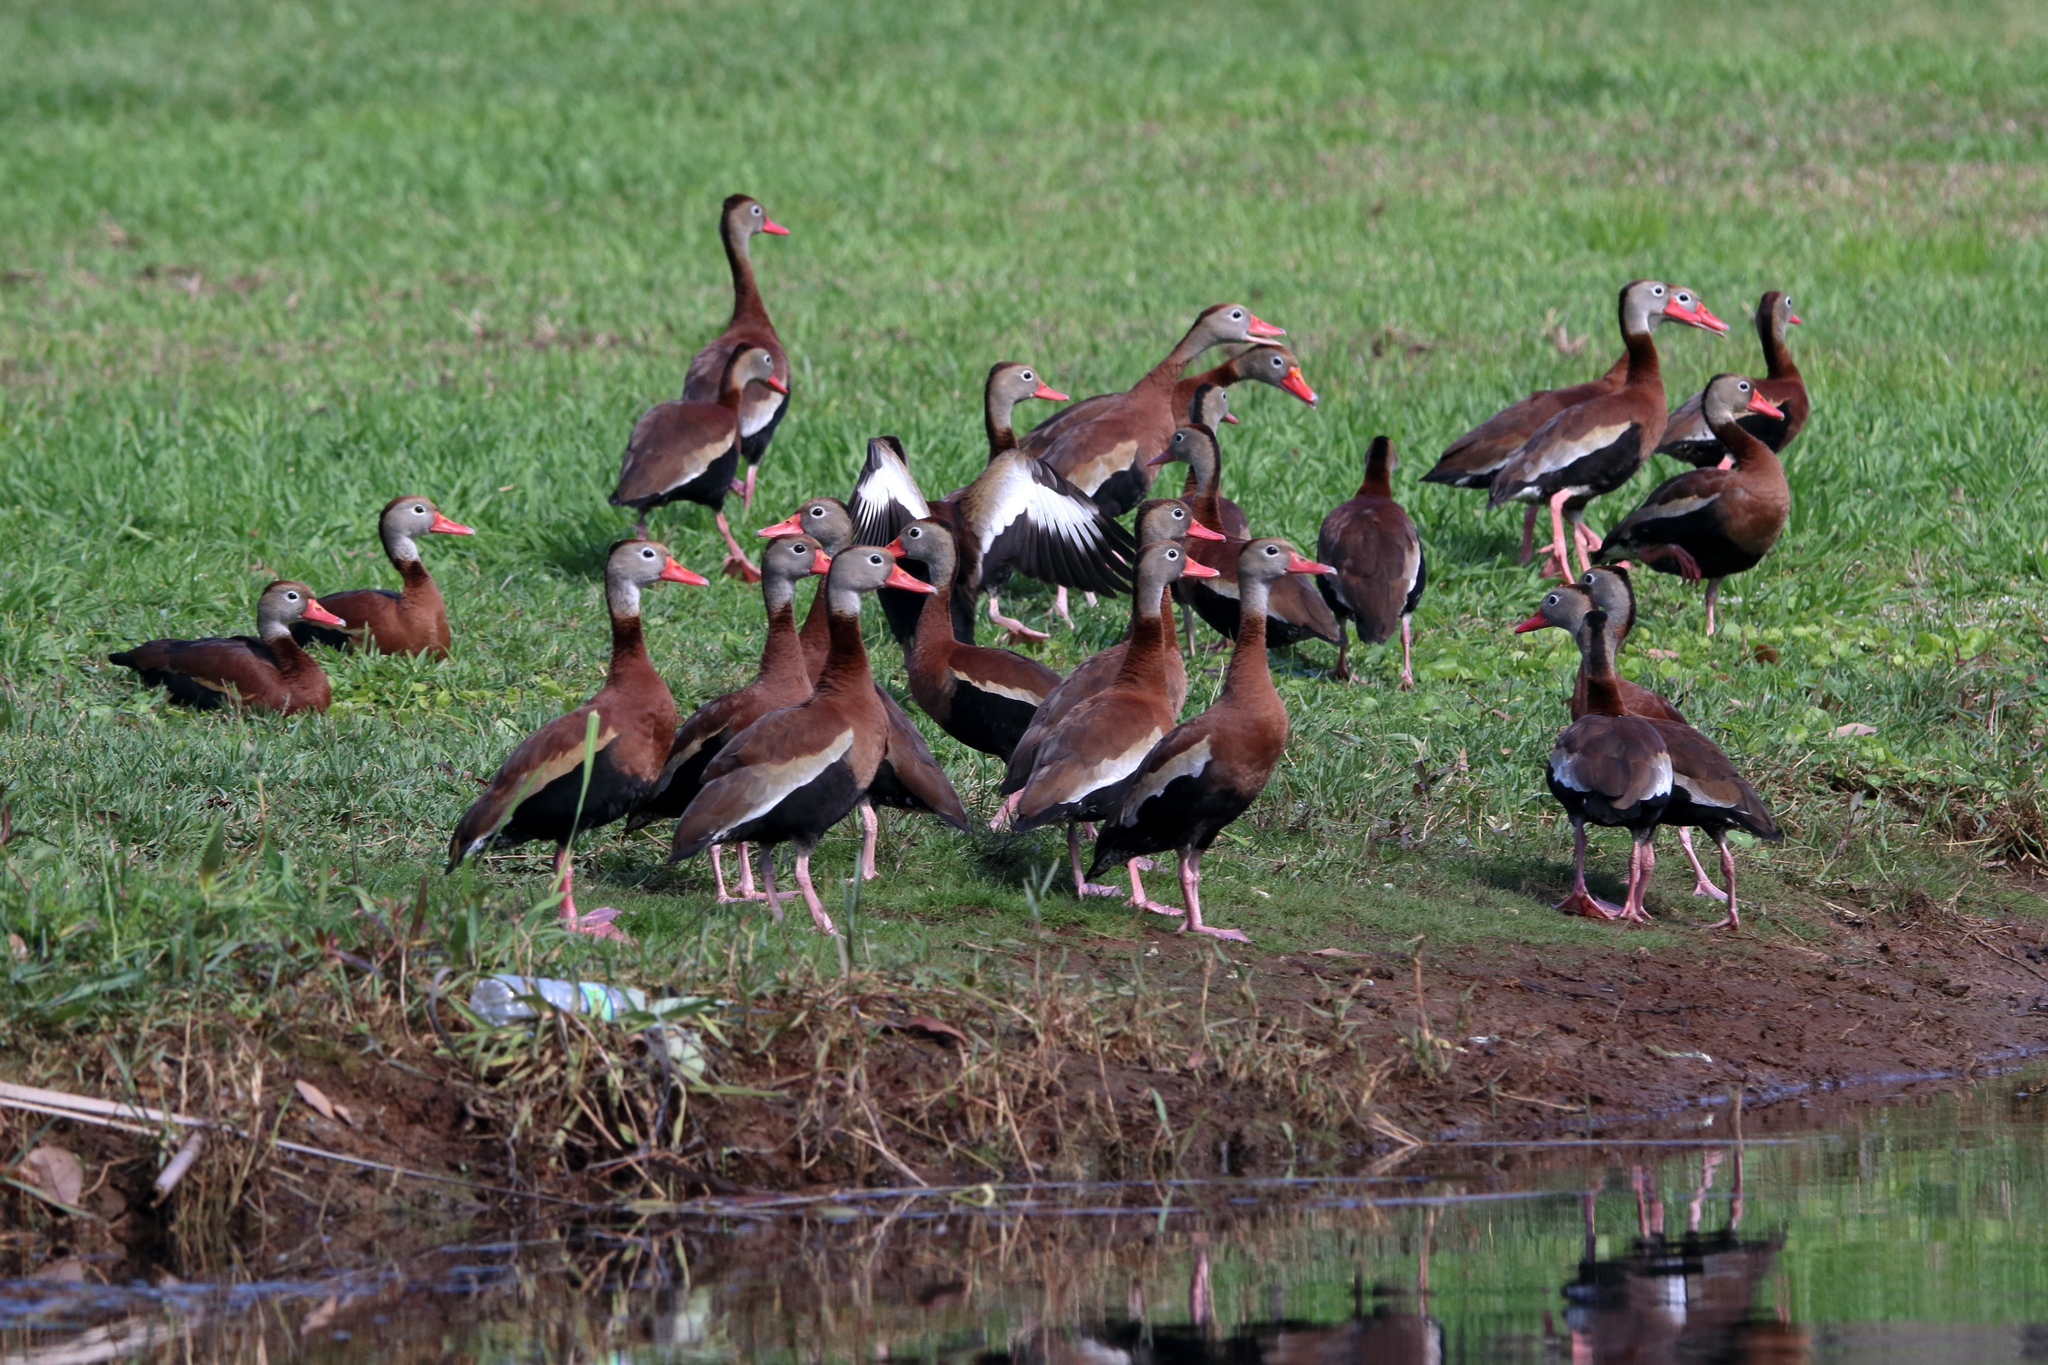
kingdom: Animalia
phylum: Chordata
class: Aves
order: Anseriformes
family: Anatidae
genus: Dendrocygna
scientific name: Dendrocygna autumnalis
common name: Black-bellied whistling duck
